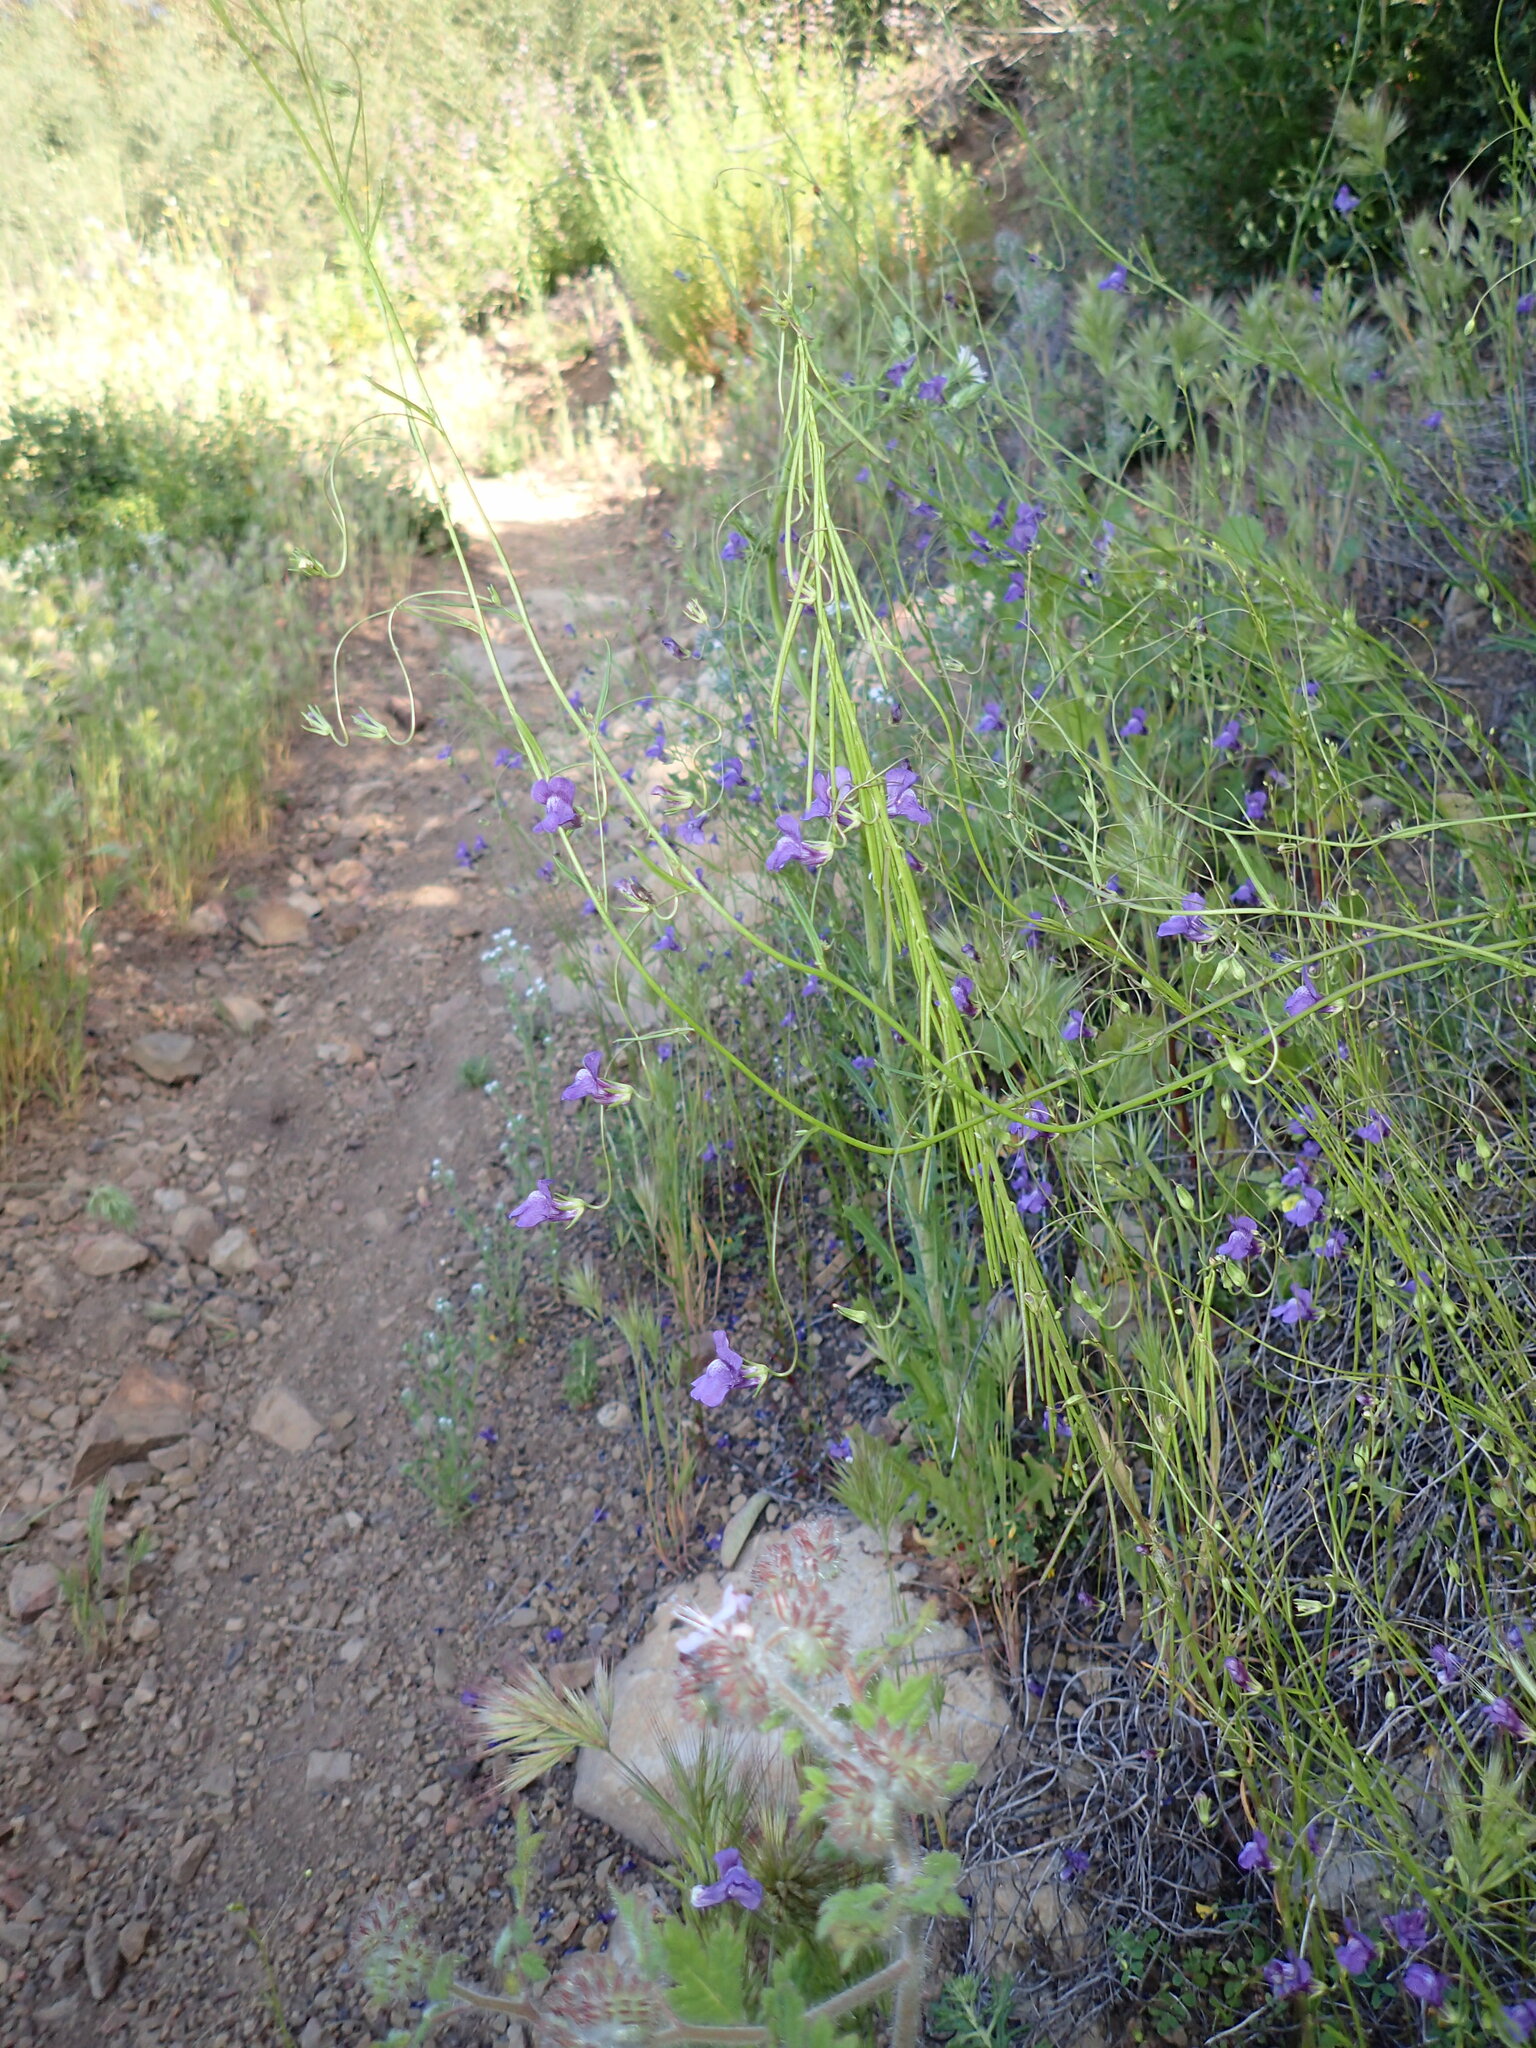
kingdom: Plantae
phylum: Tracheophyta
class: Magnoliopsida
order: Lamiales
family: Plantaginaceae
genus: Neogaerrhinum
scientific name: Neogaerrhinum strictum
